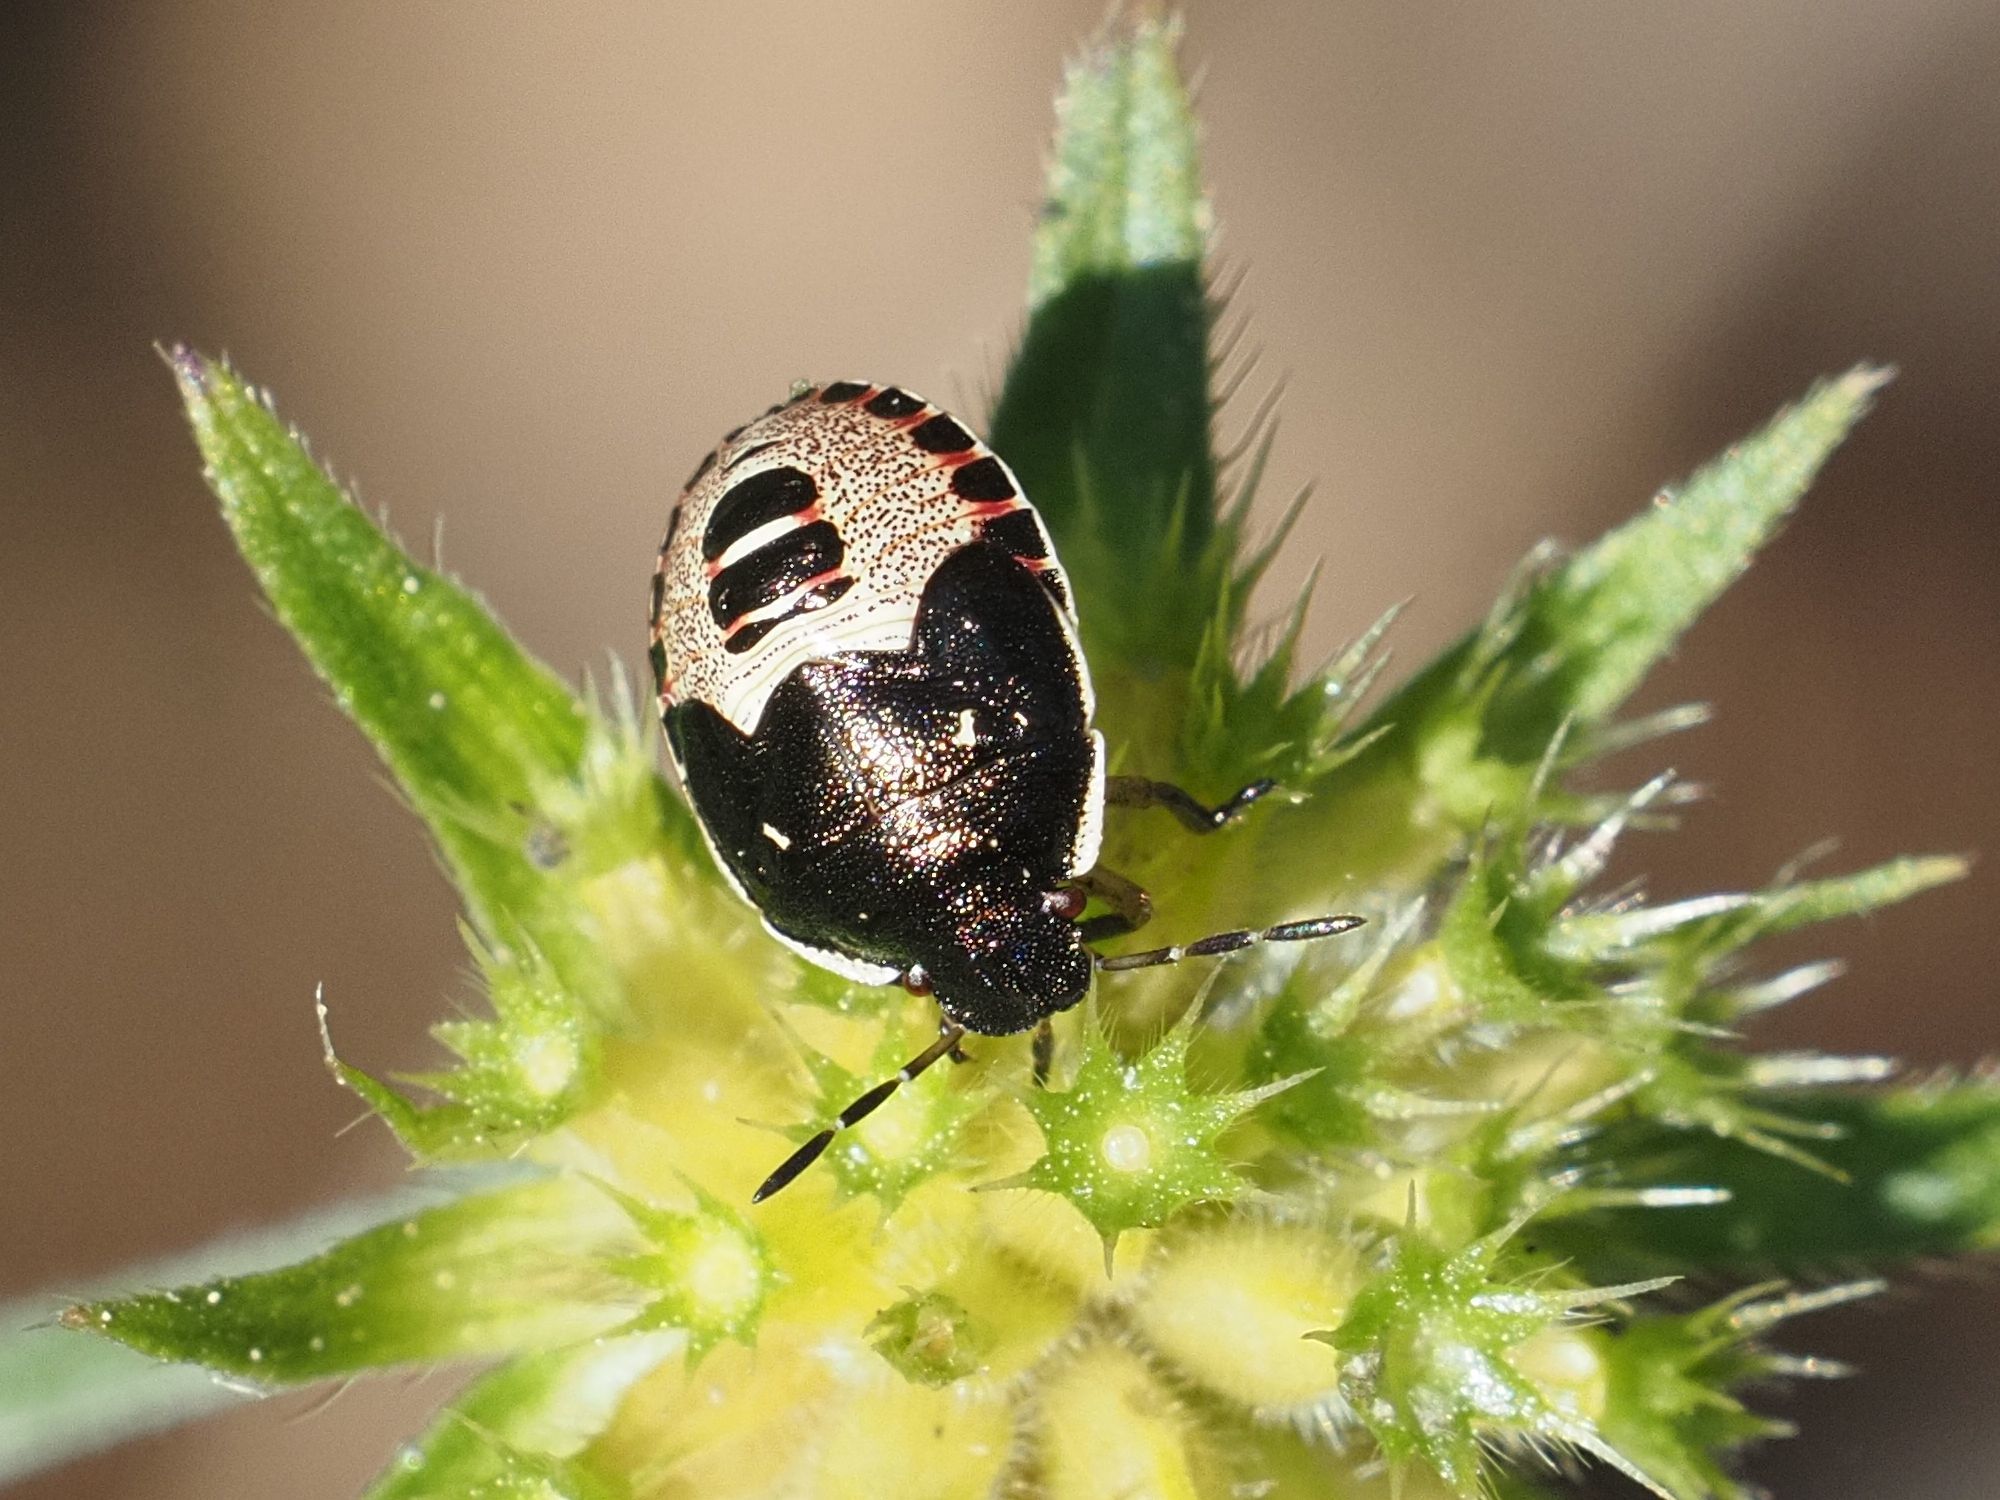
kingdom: Animalia
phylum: Arthropoda
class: Insecta
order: Hemiptera
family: Pentatomidae
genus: Holcostethus
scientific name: Holcostethus sphacelatus
